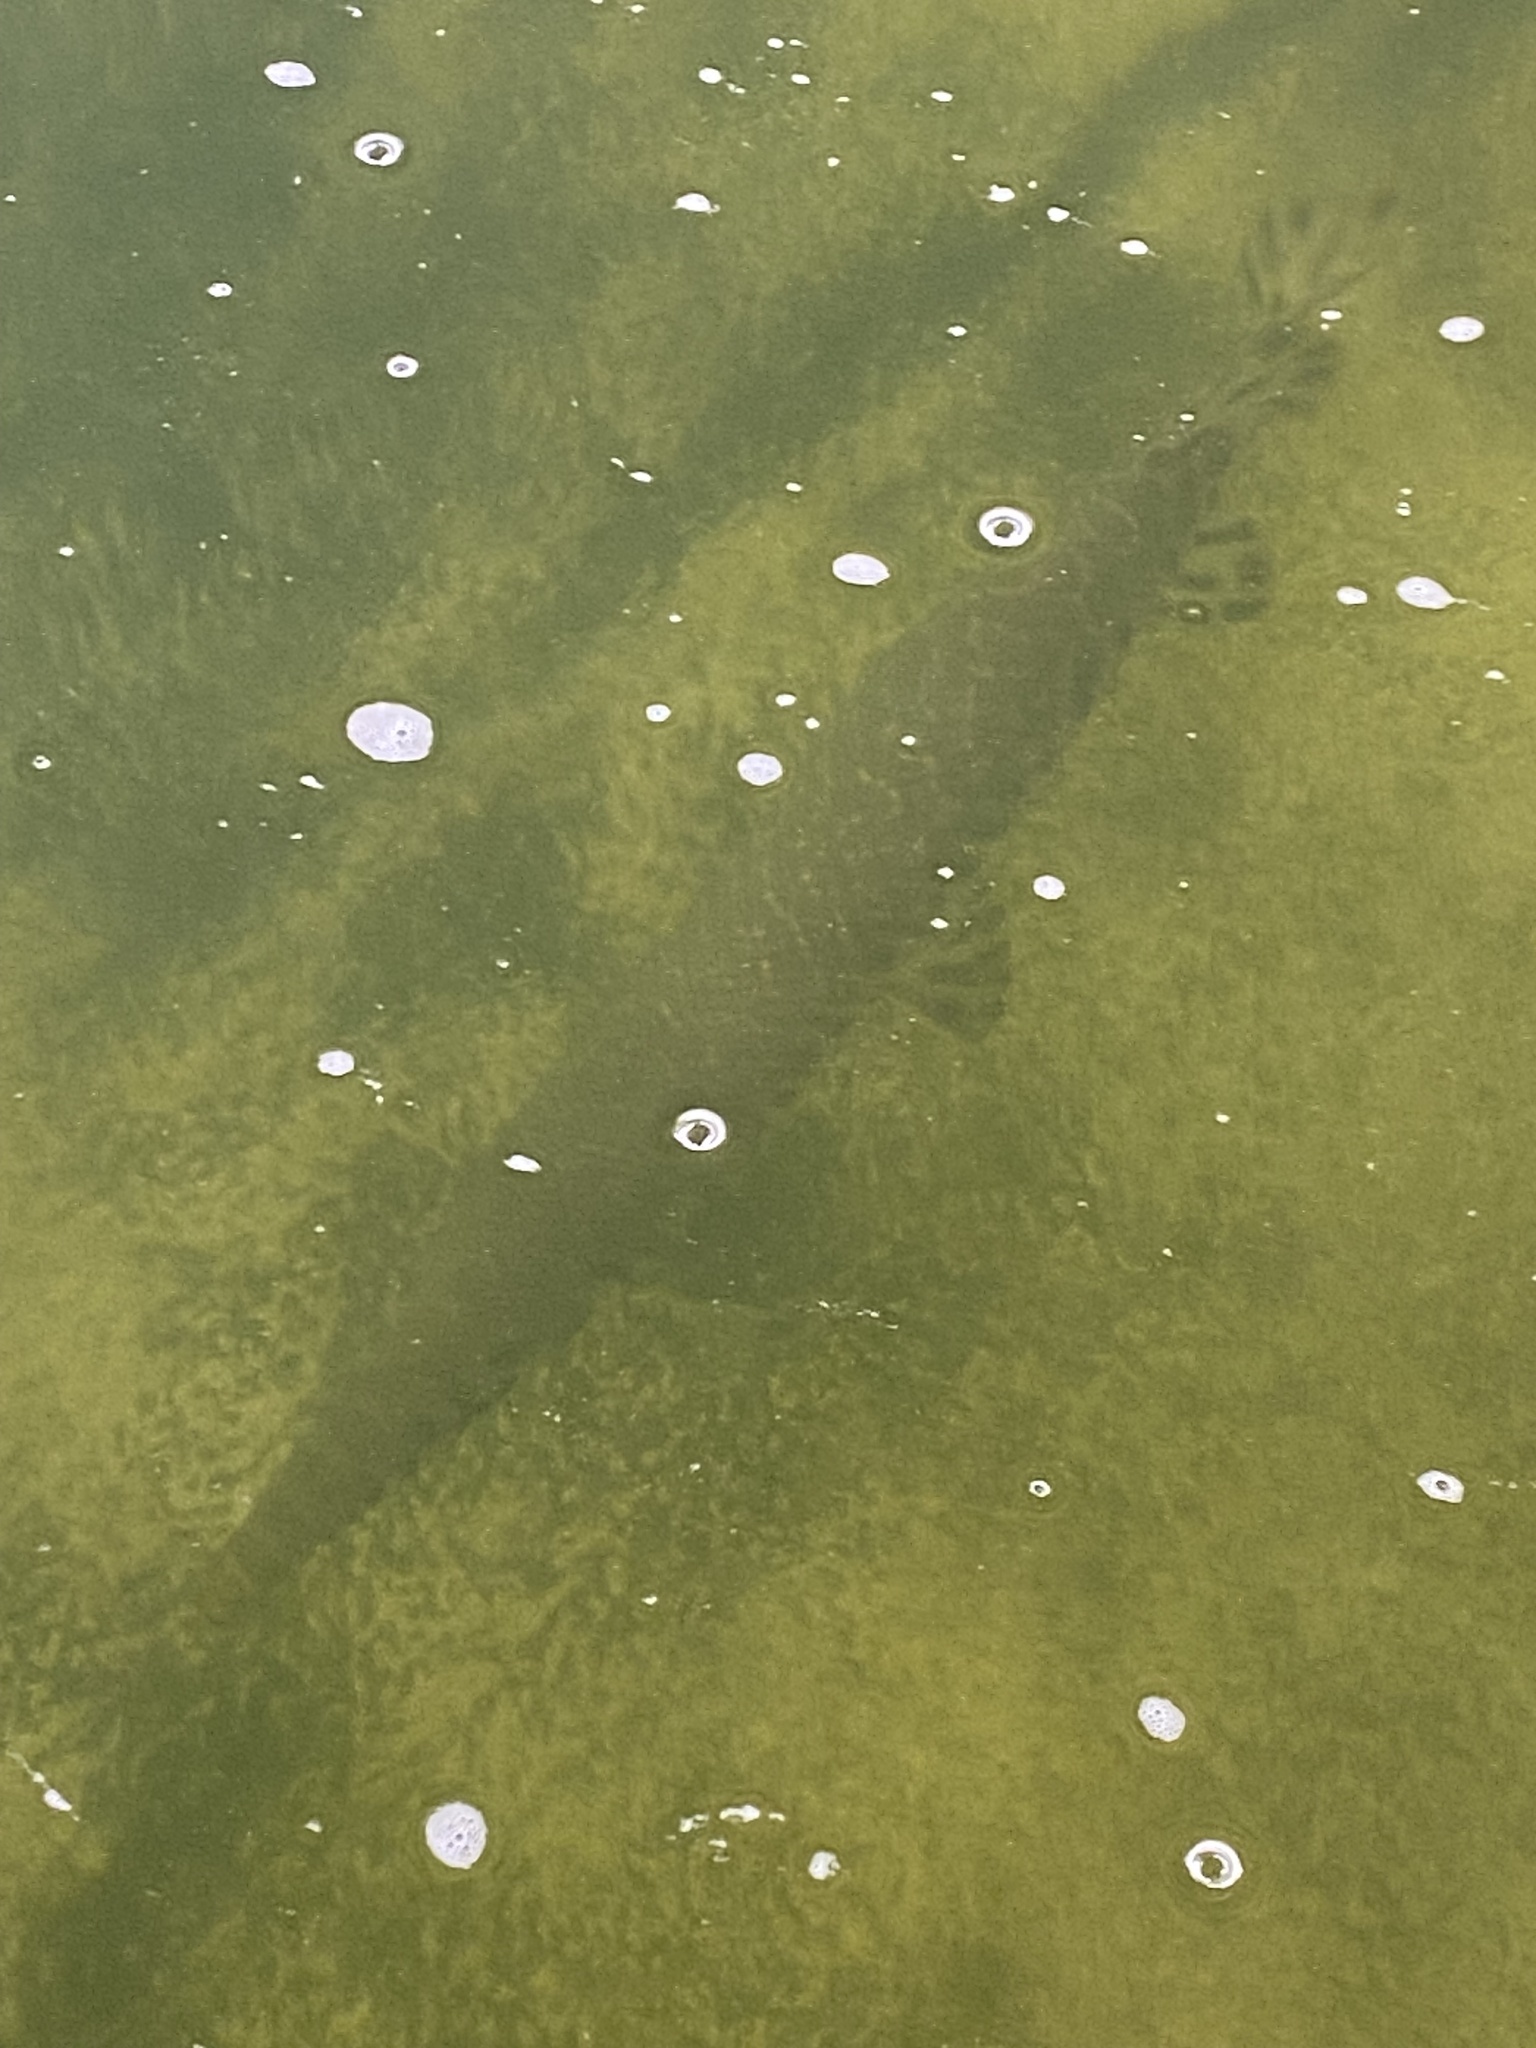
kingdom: Animalia
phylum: Chordata
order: Lepisosteiformes
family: Lepisosteidae
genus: Lepisosteus
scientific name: Lepisosteus oculatus
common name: Spotted gar
